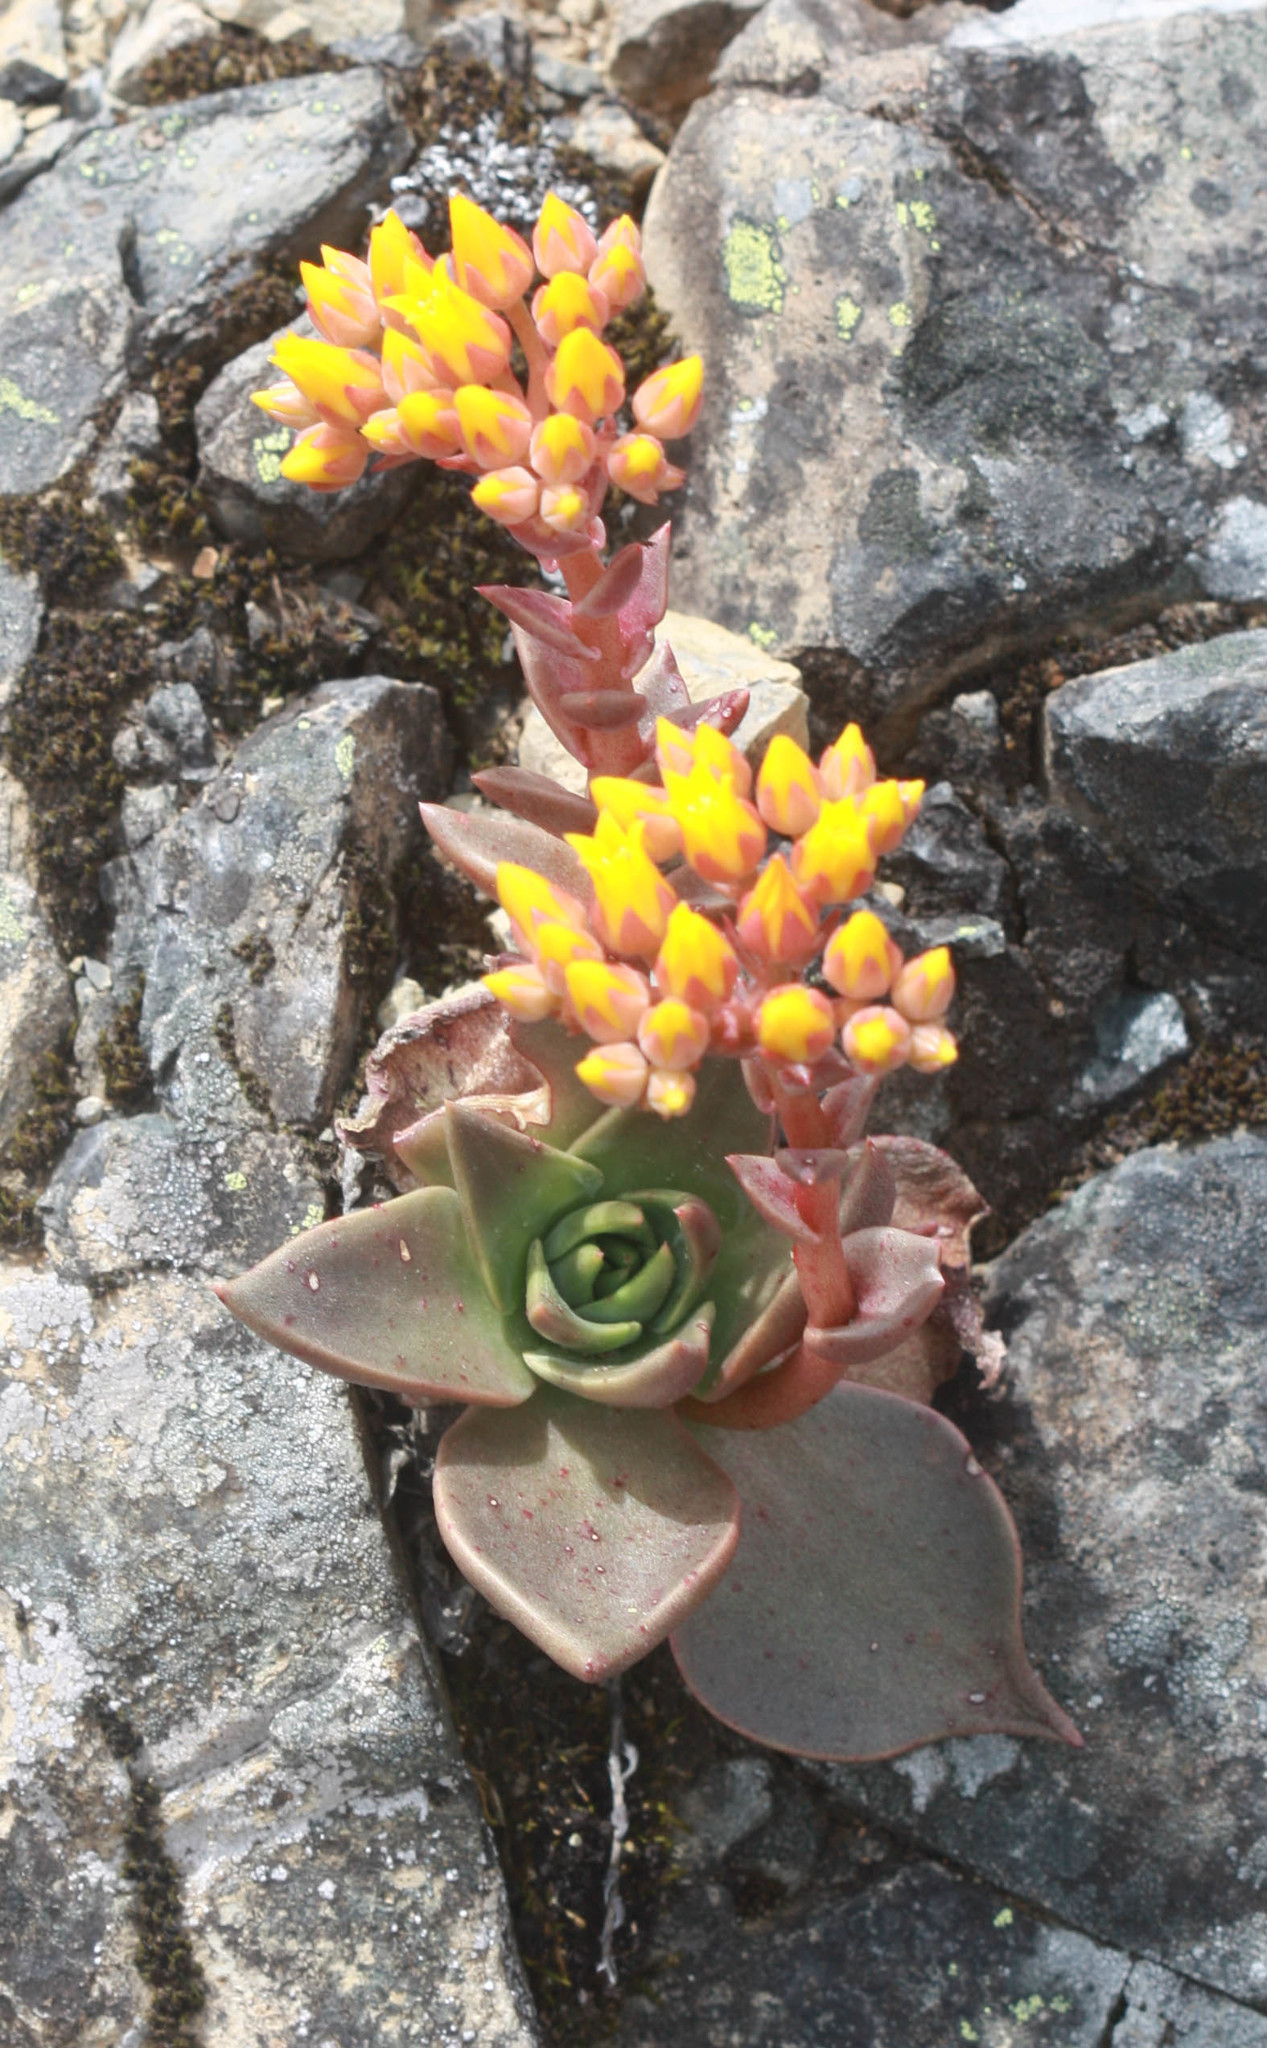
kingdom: Plantae
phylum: Tracheophyta
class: Magnoliopsida
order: Saxifragales
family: Crassulaceae
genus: Dudleya
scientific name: Dudleya cymosa
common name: Canyon dudleya
